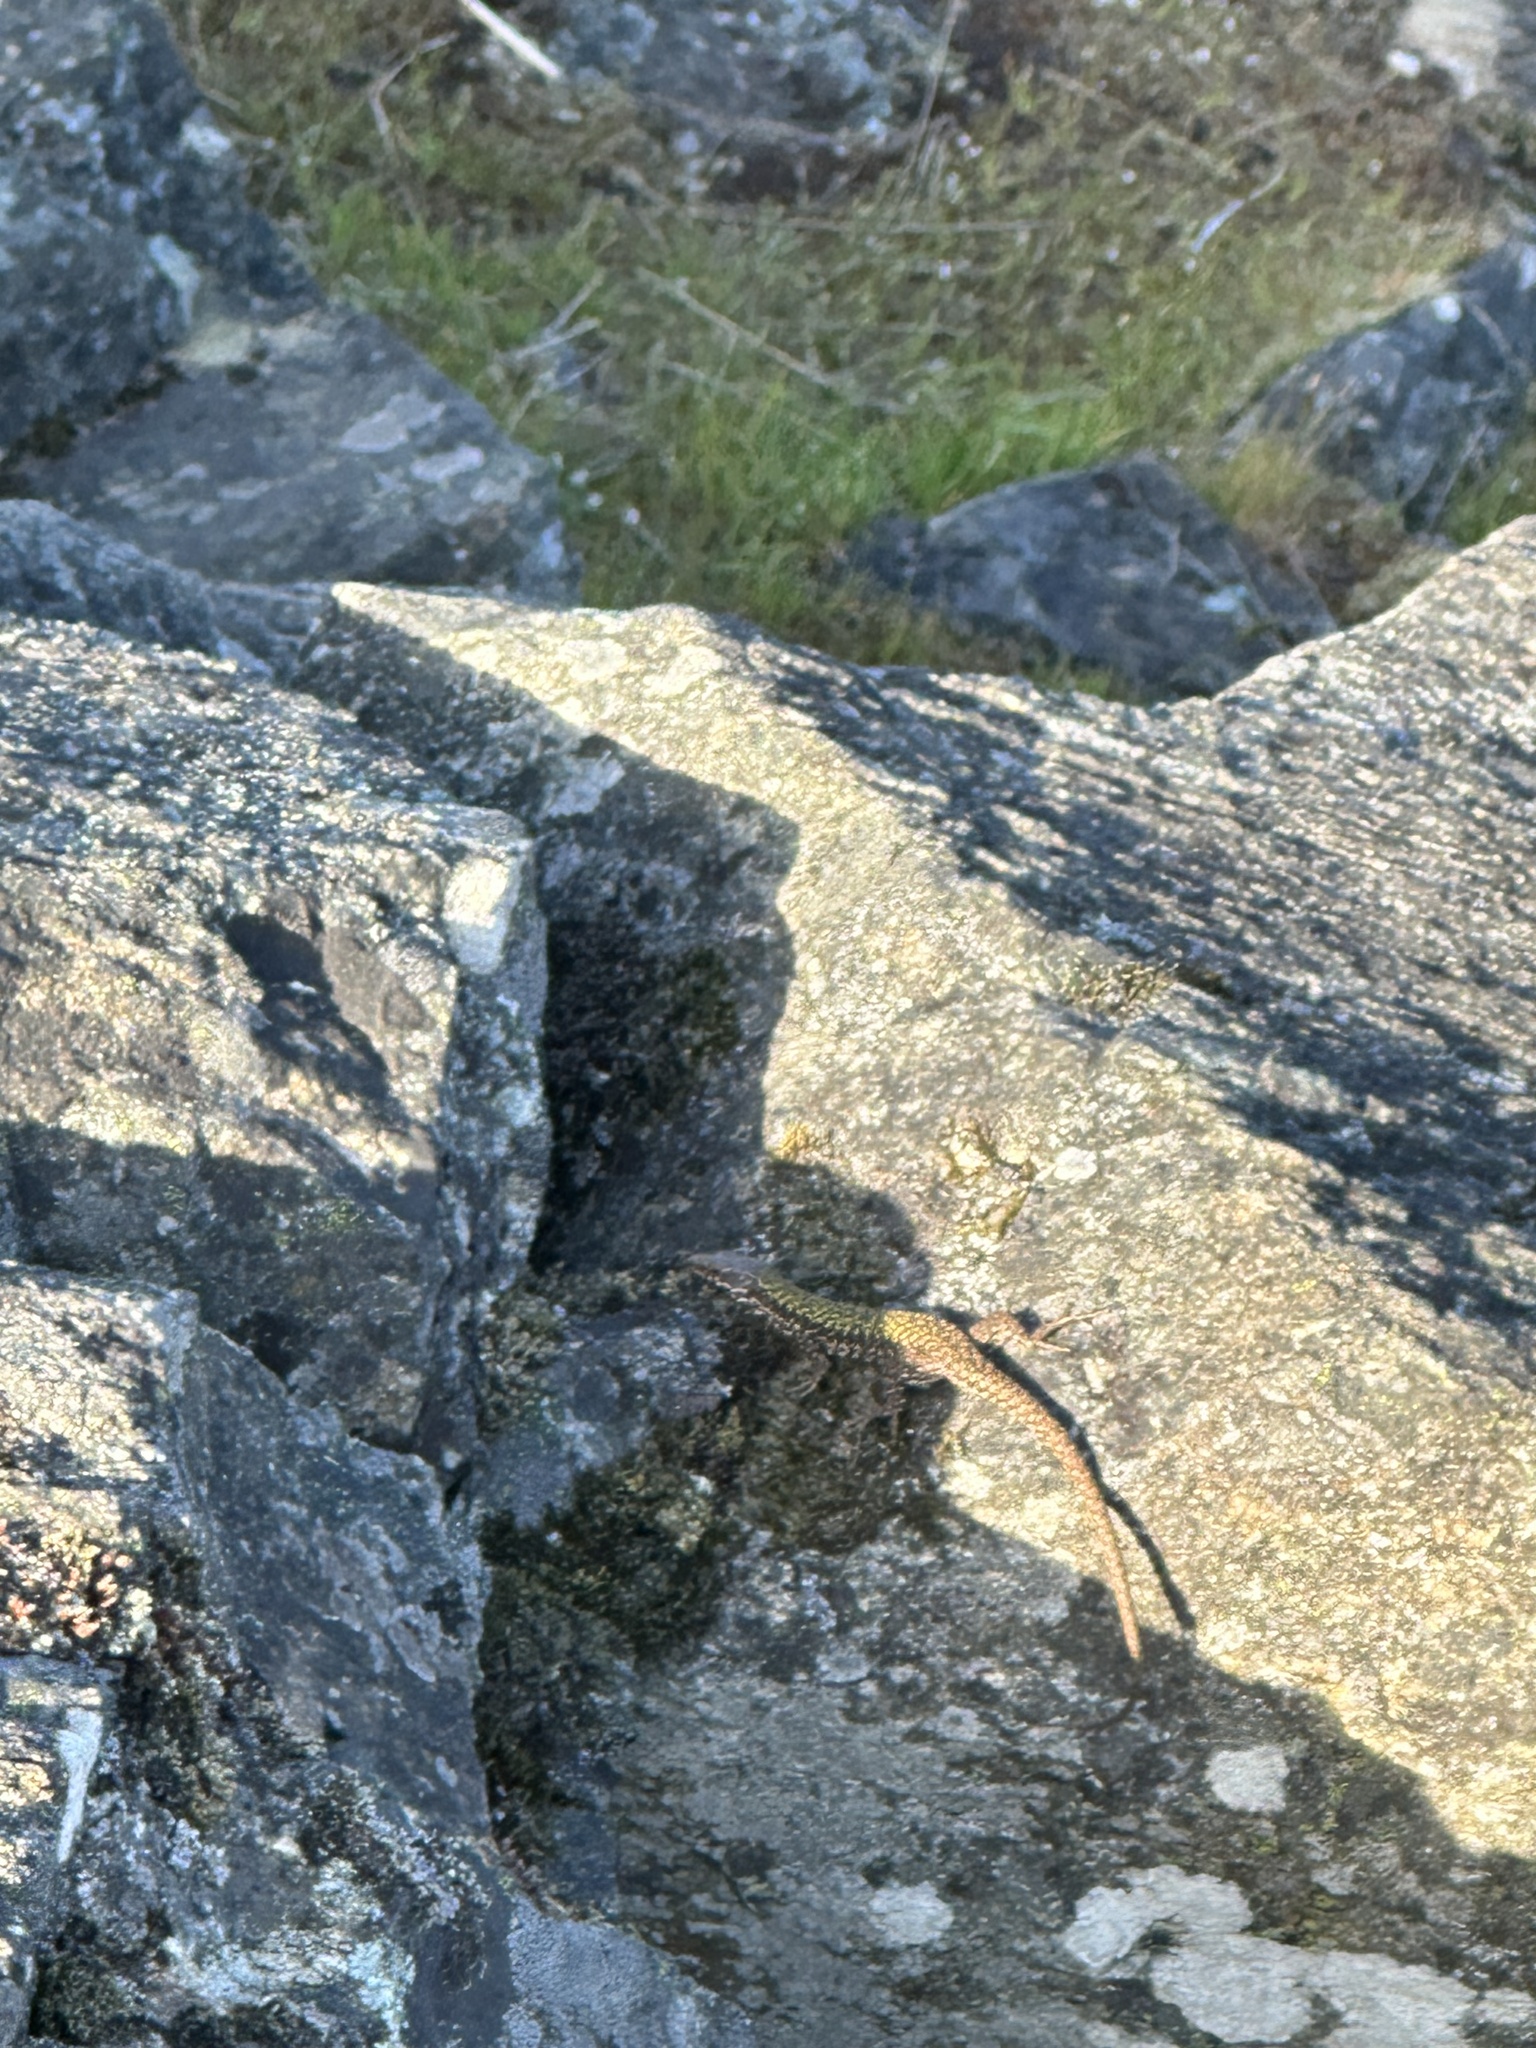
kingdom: Animalia
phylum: Chordata
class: Squamata
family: Lacertidae
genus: Podarcis
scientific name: Podarcis muralis
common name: Common wall lizard
